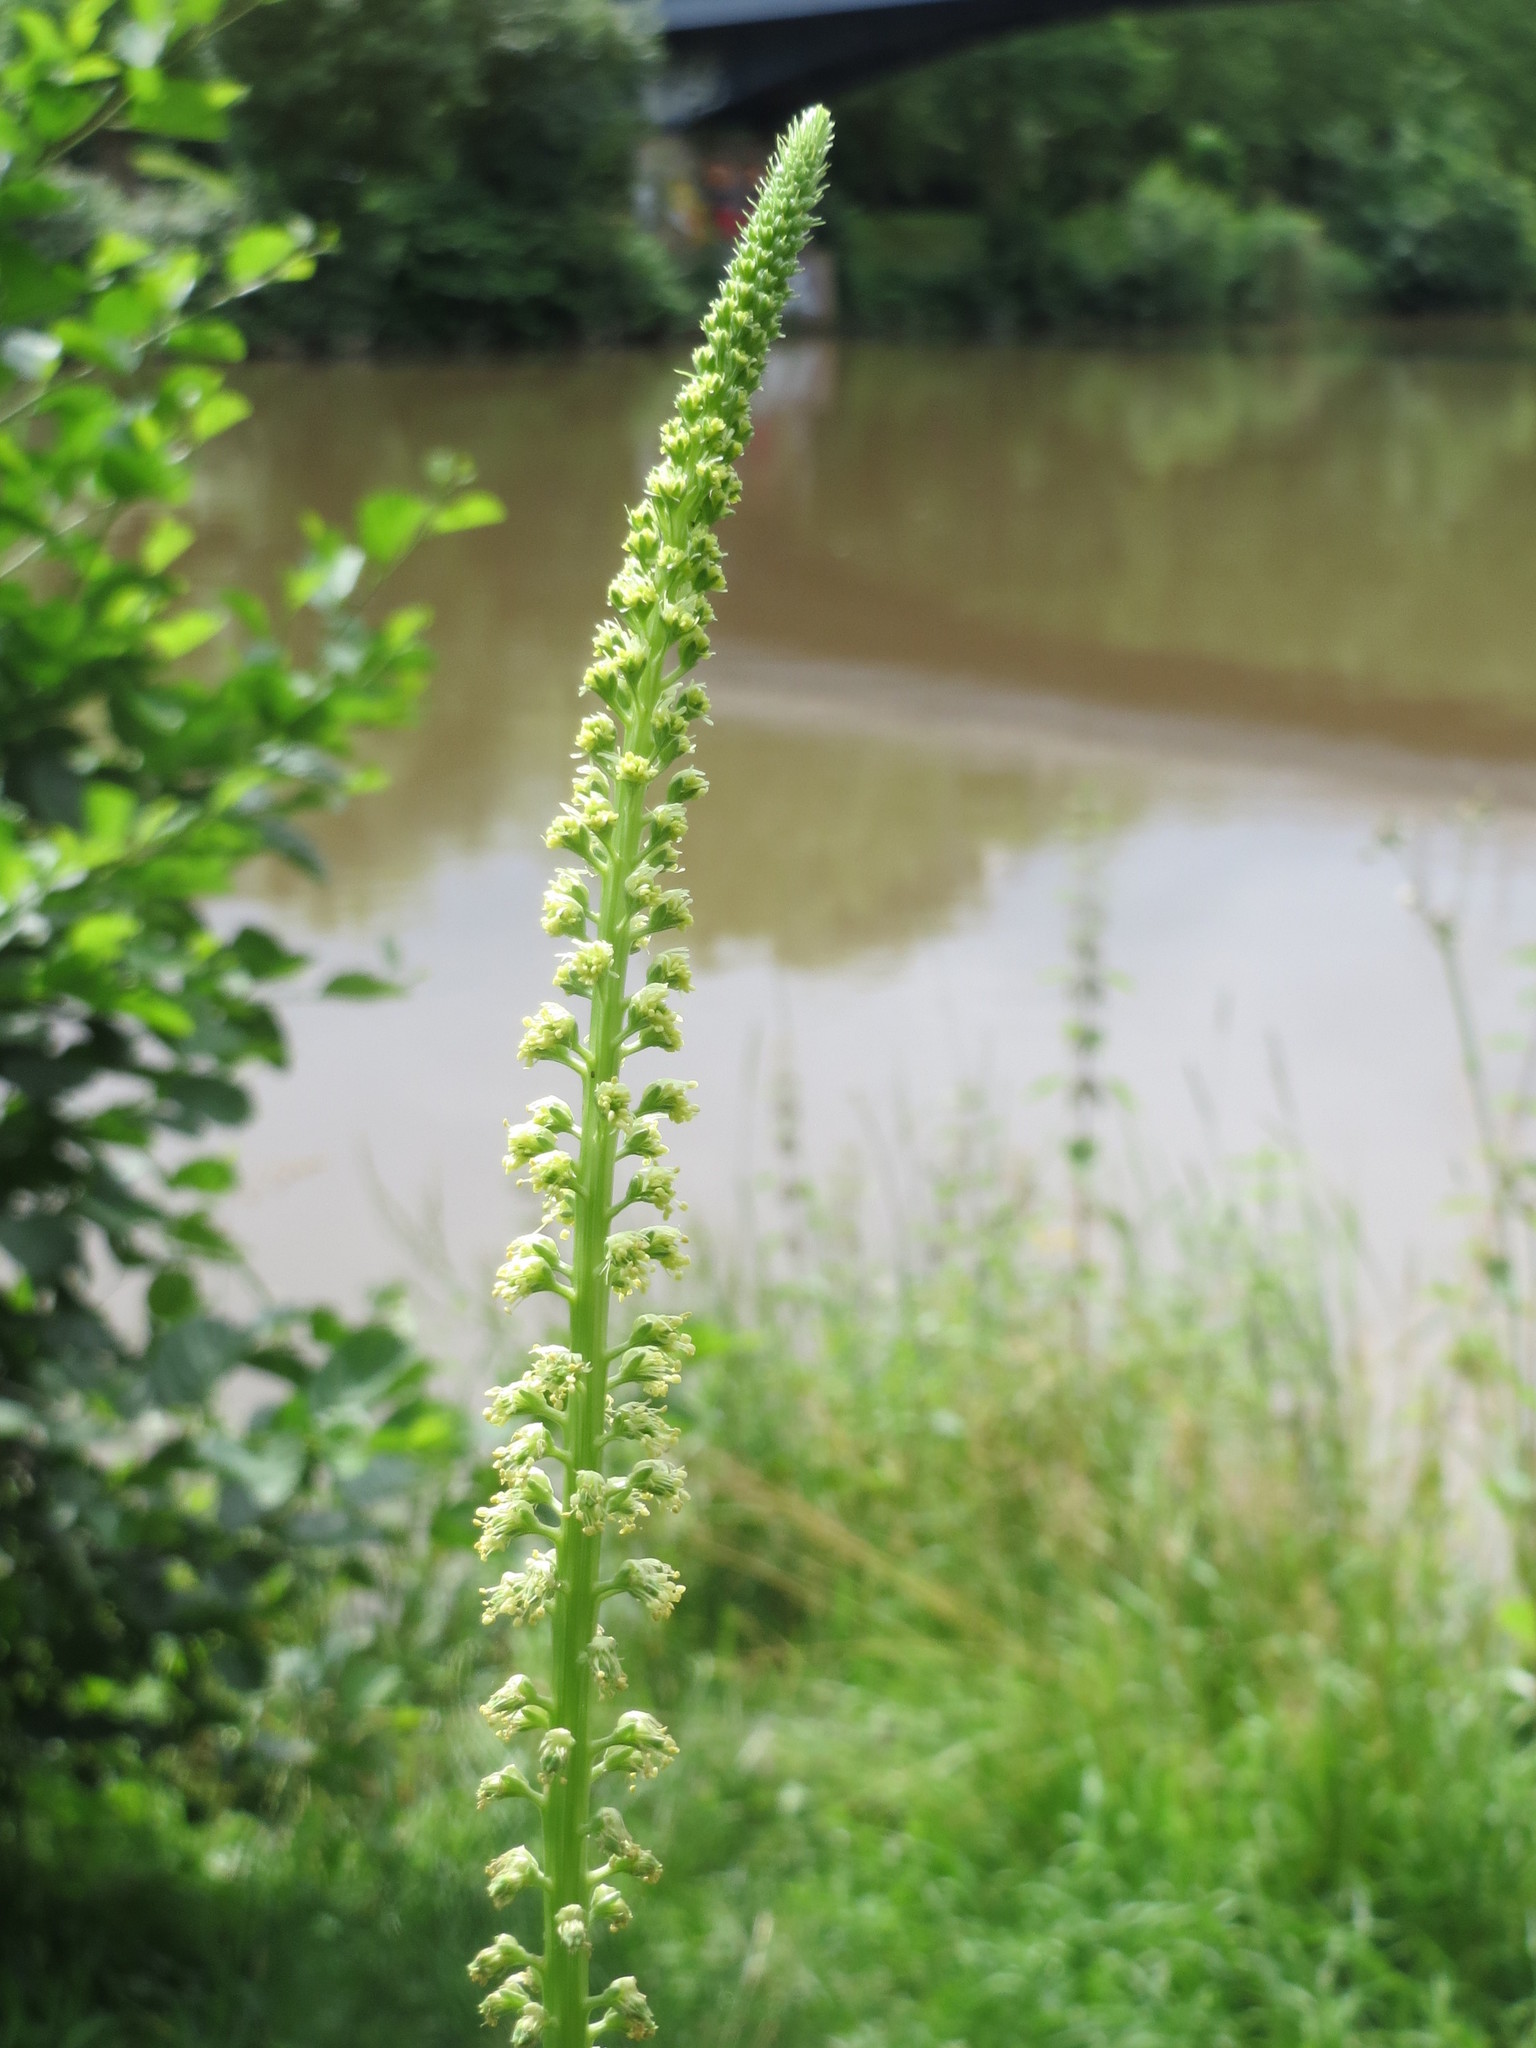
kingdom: Plantae
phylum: Tracheophyta
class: Magnoliopsida
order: Brassicales
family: Resedaceae
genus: Reseda
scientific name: Reseda luteola
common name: Weld
